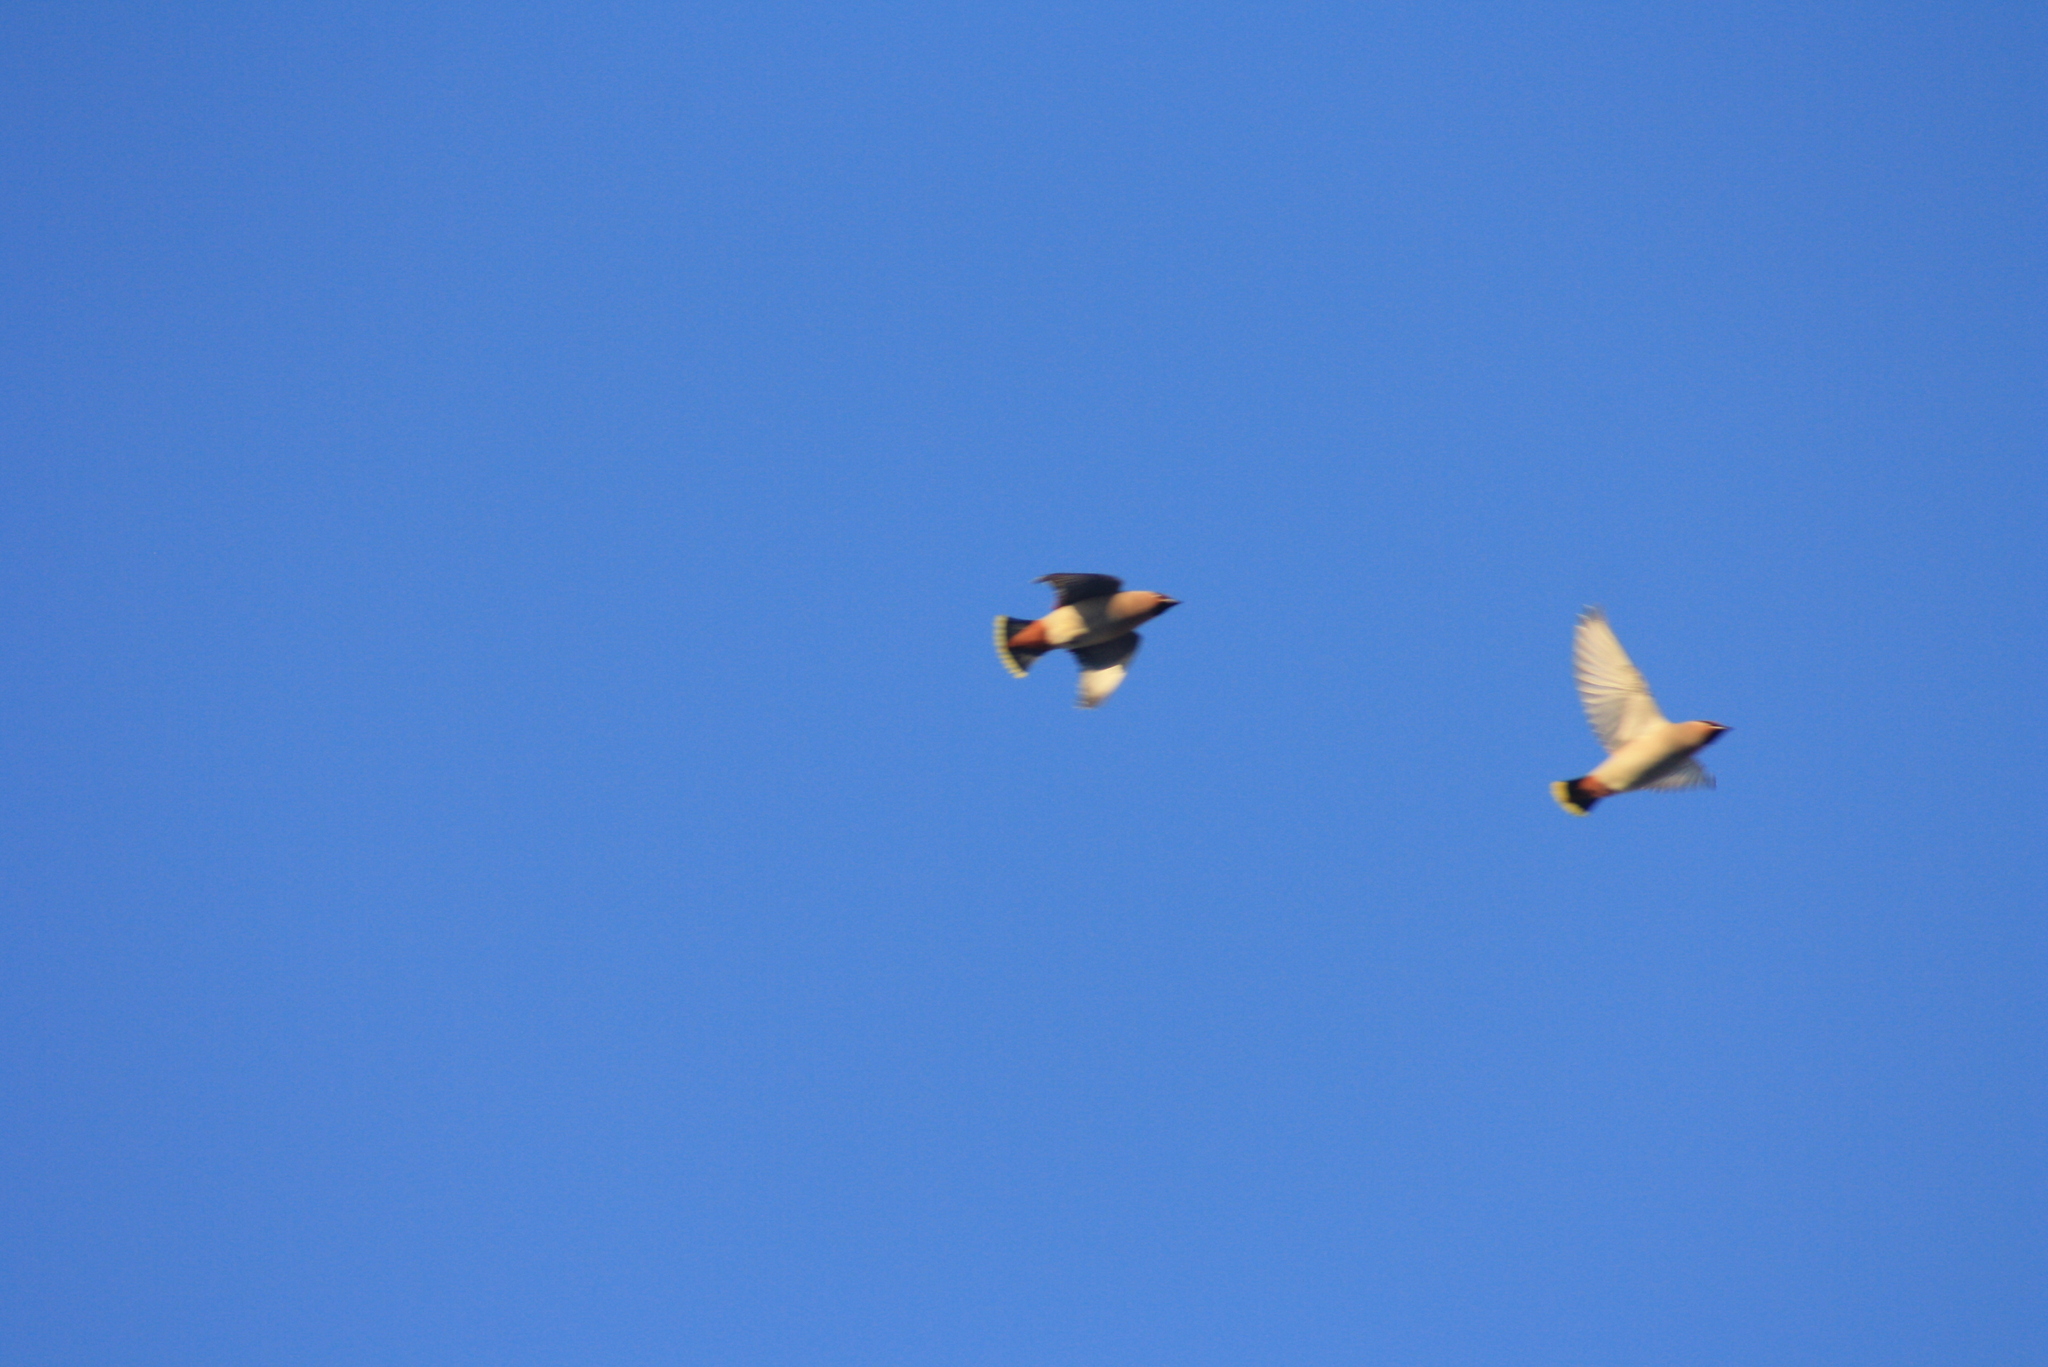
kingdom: Animalia
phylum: Chordata
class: Aves
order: Passeriformes
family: Bombycillidae
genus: Bombycilla
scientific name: Bombycilla garrulus
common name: Bohemian waxwing
